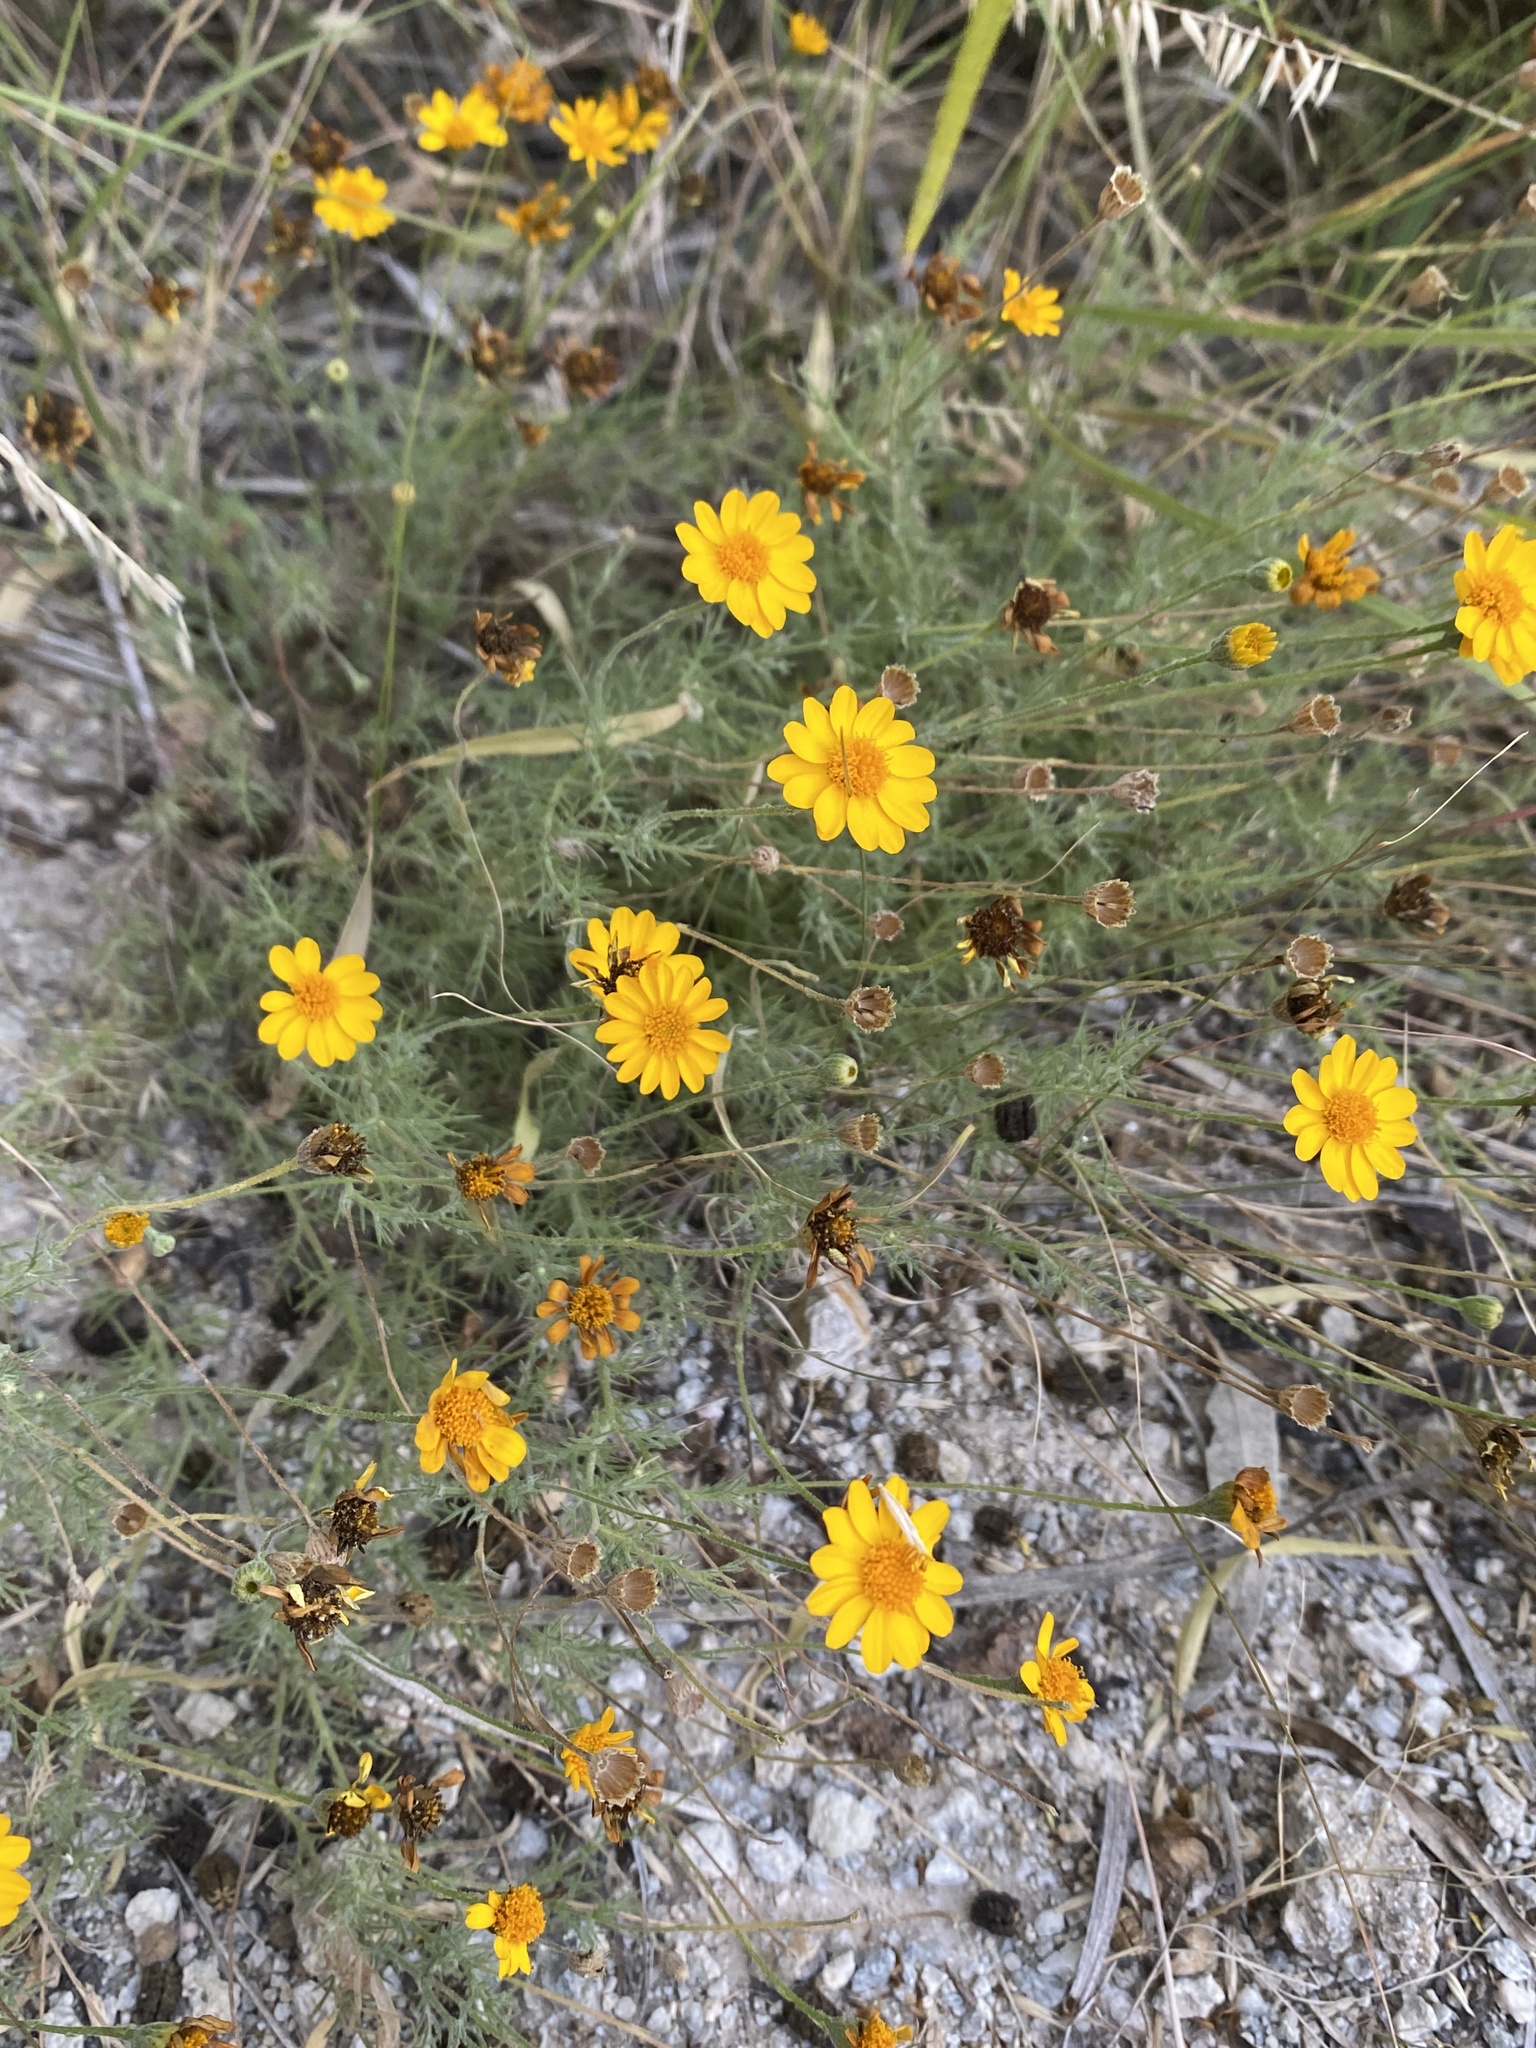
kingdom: Plantae
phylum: Tracheophyta
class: Magnoliopsida
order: Asterales
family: Asteraceae
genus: Thymophylla
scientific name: Thymophylla pentachaeta
